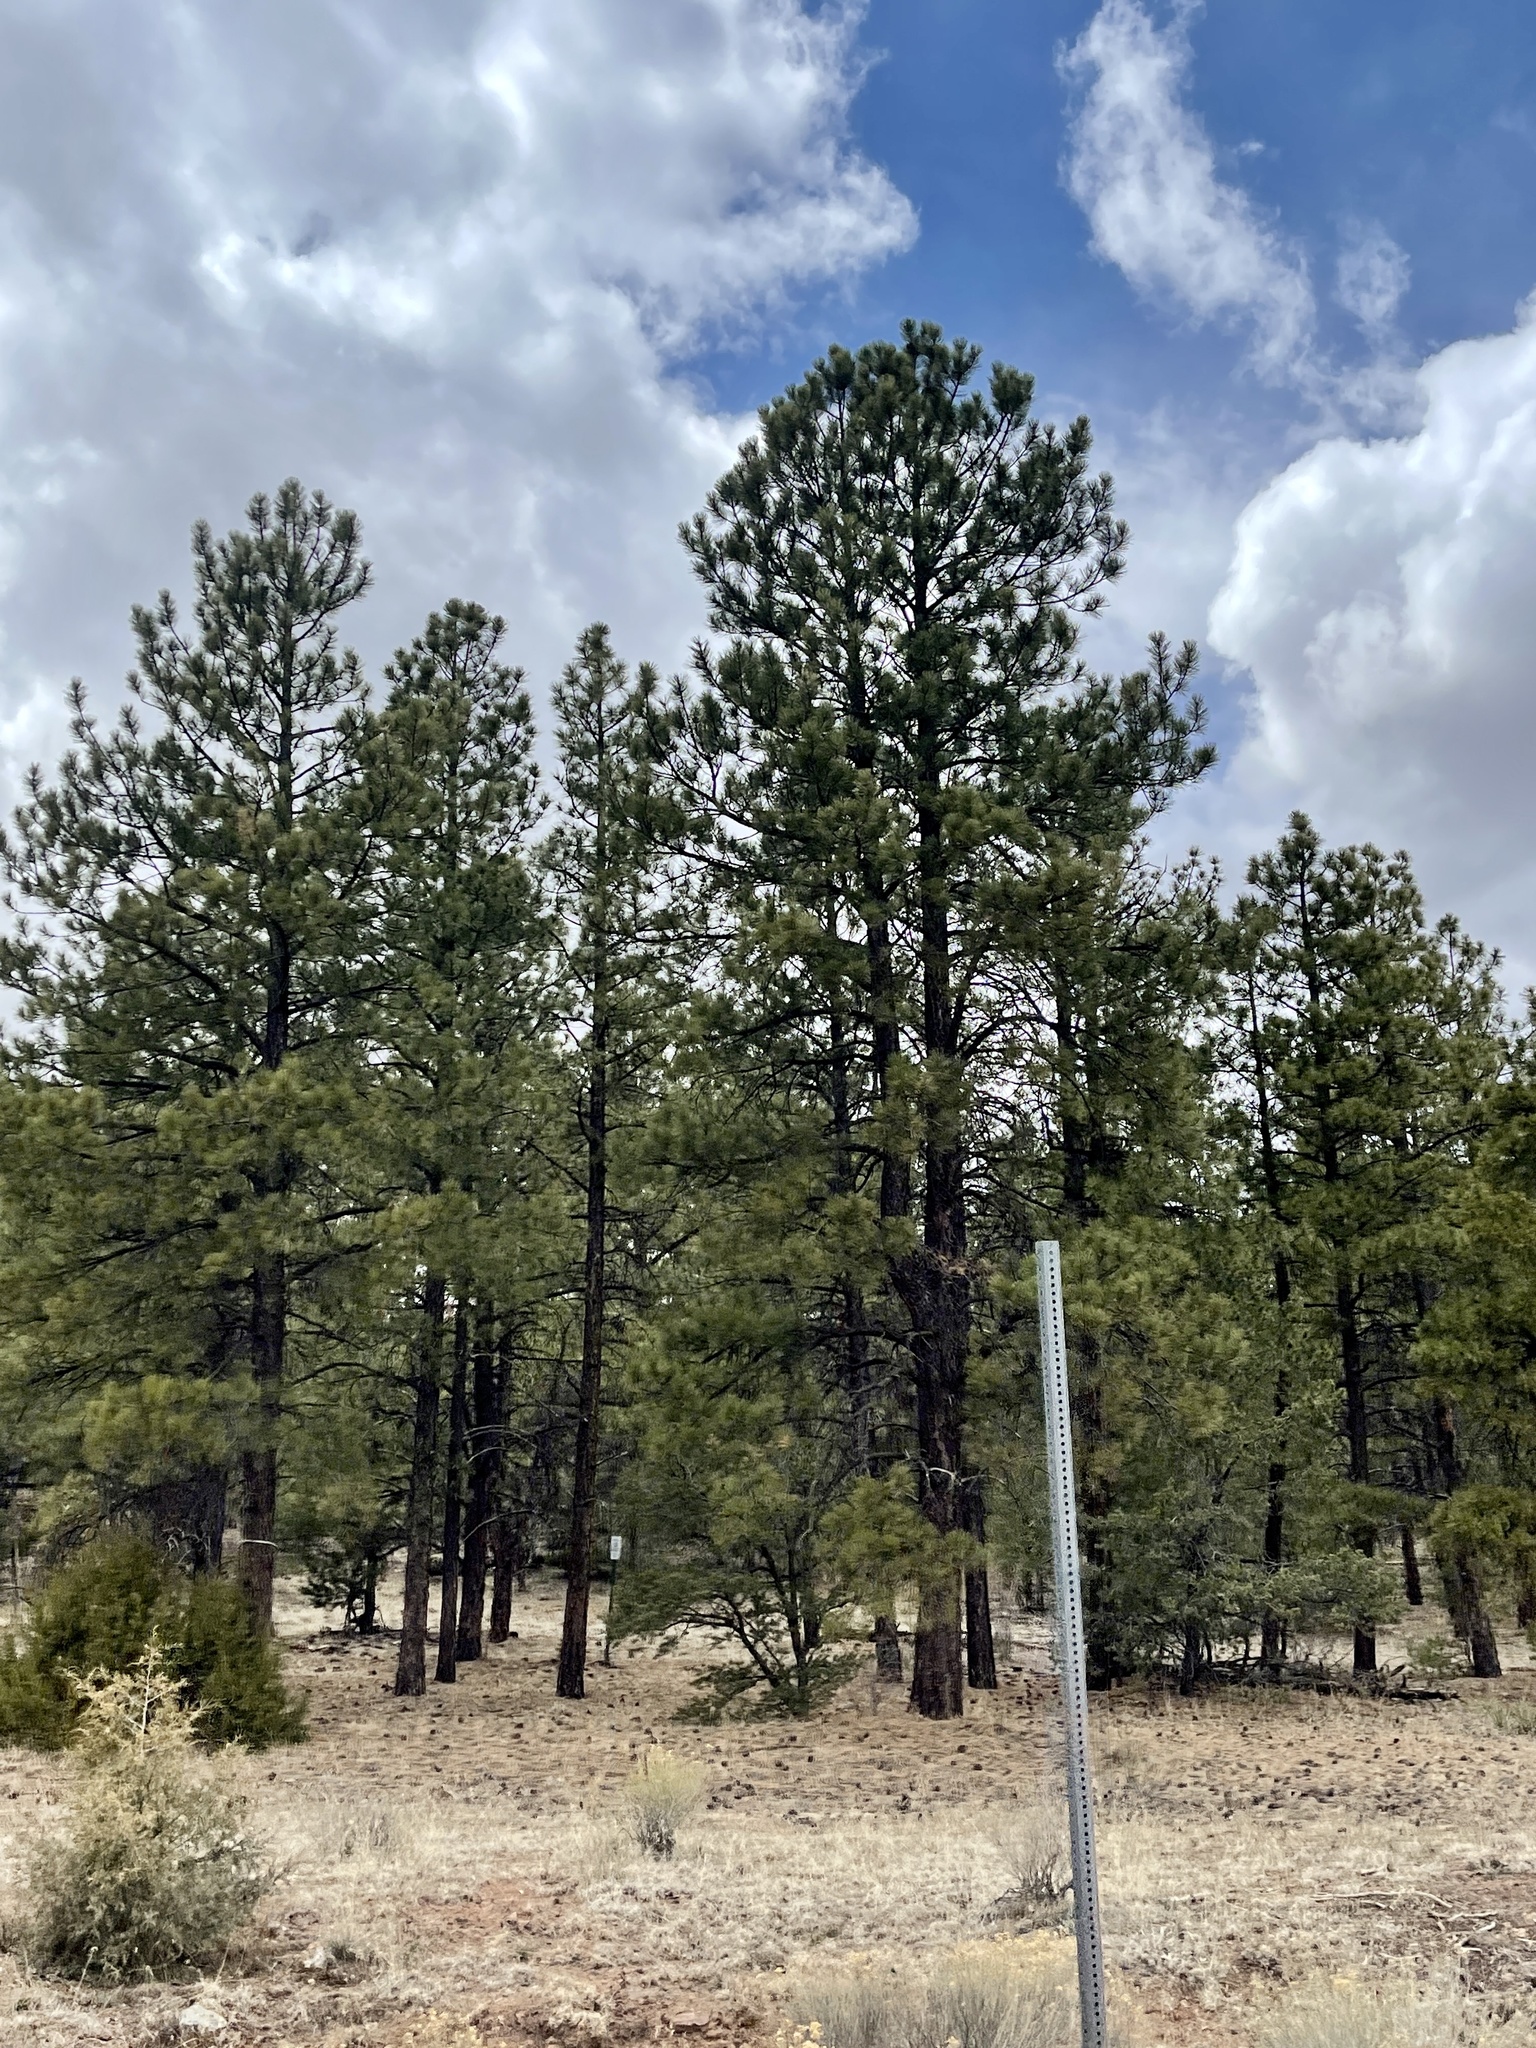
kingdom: Plantae
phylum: Tracheophyta
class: Pinopsida
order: Pinales
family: Pinaceae
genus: Pinus
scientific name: Pinus ponderosa
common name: Western yellow-pine
